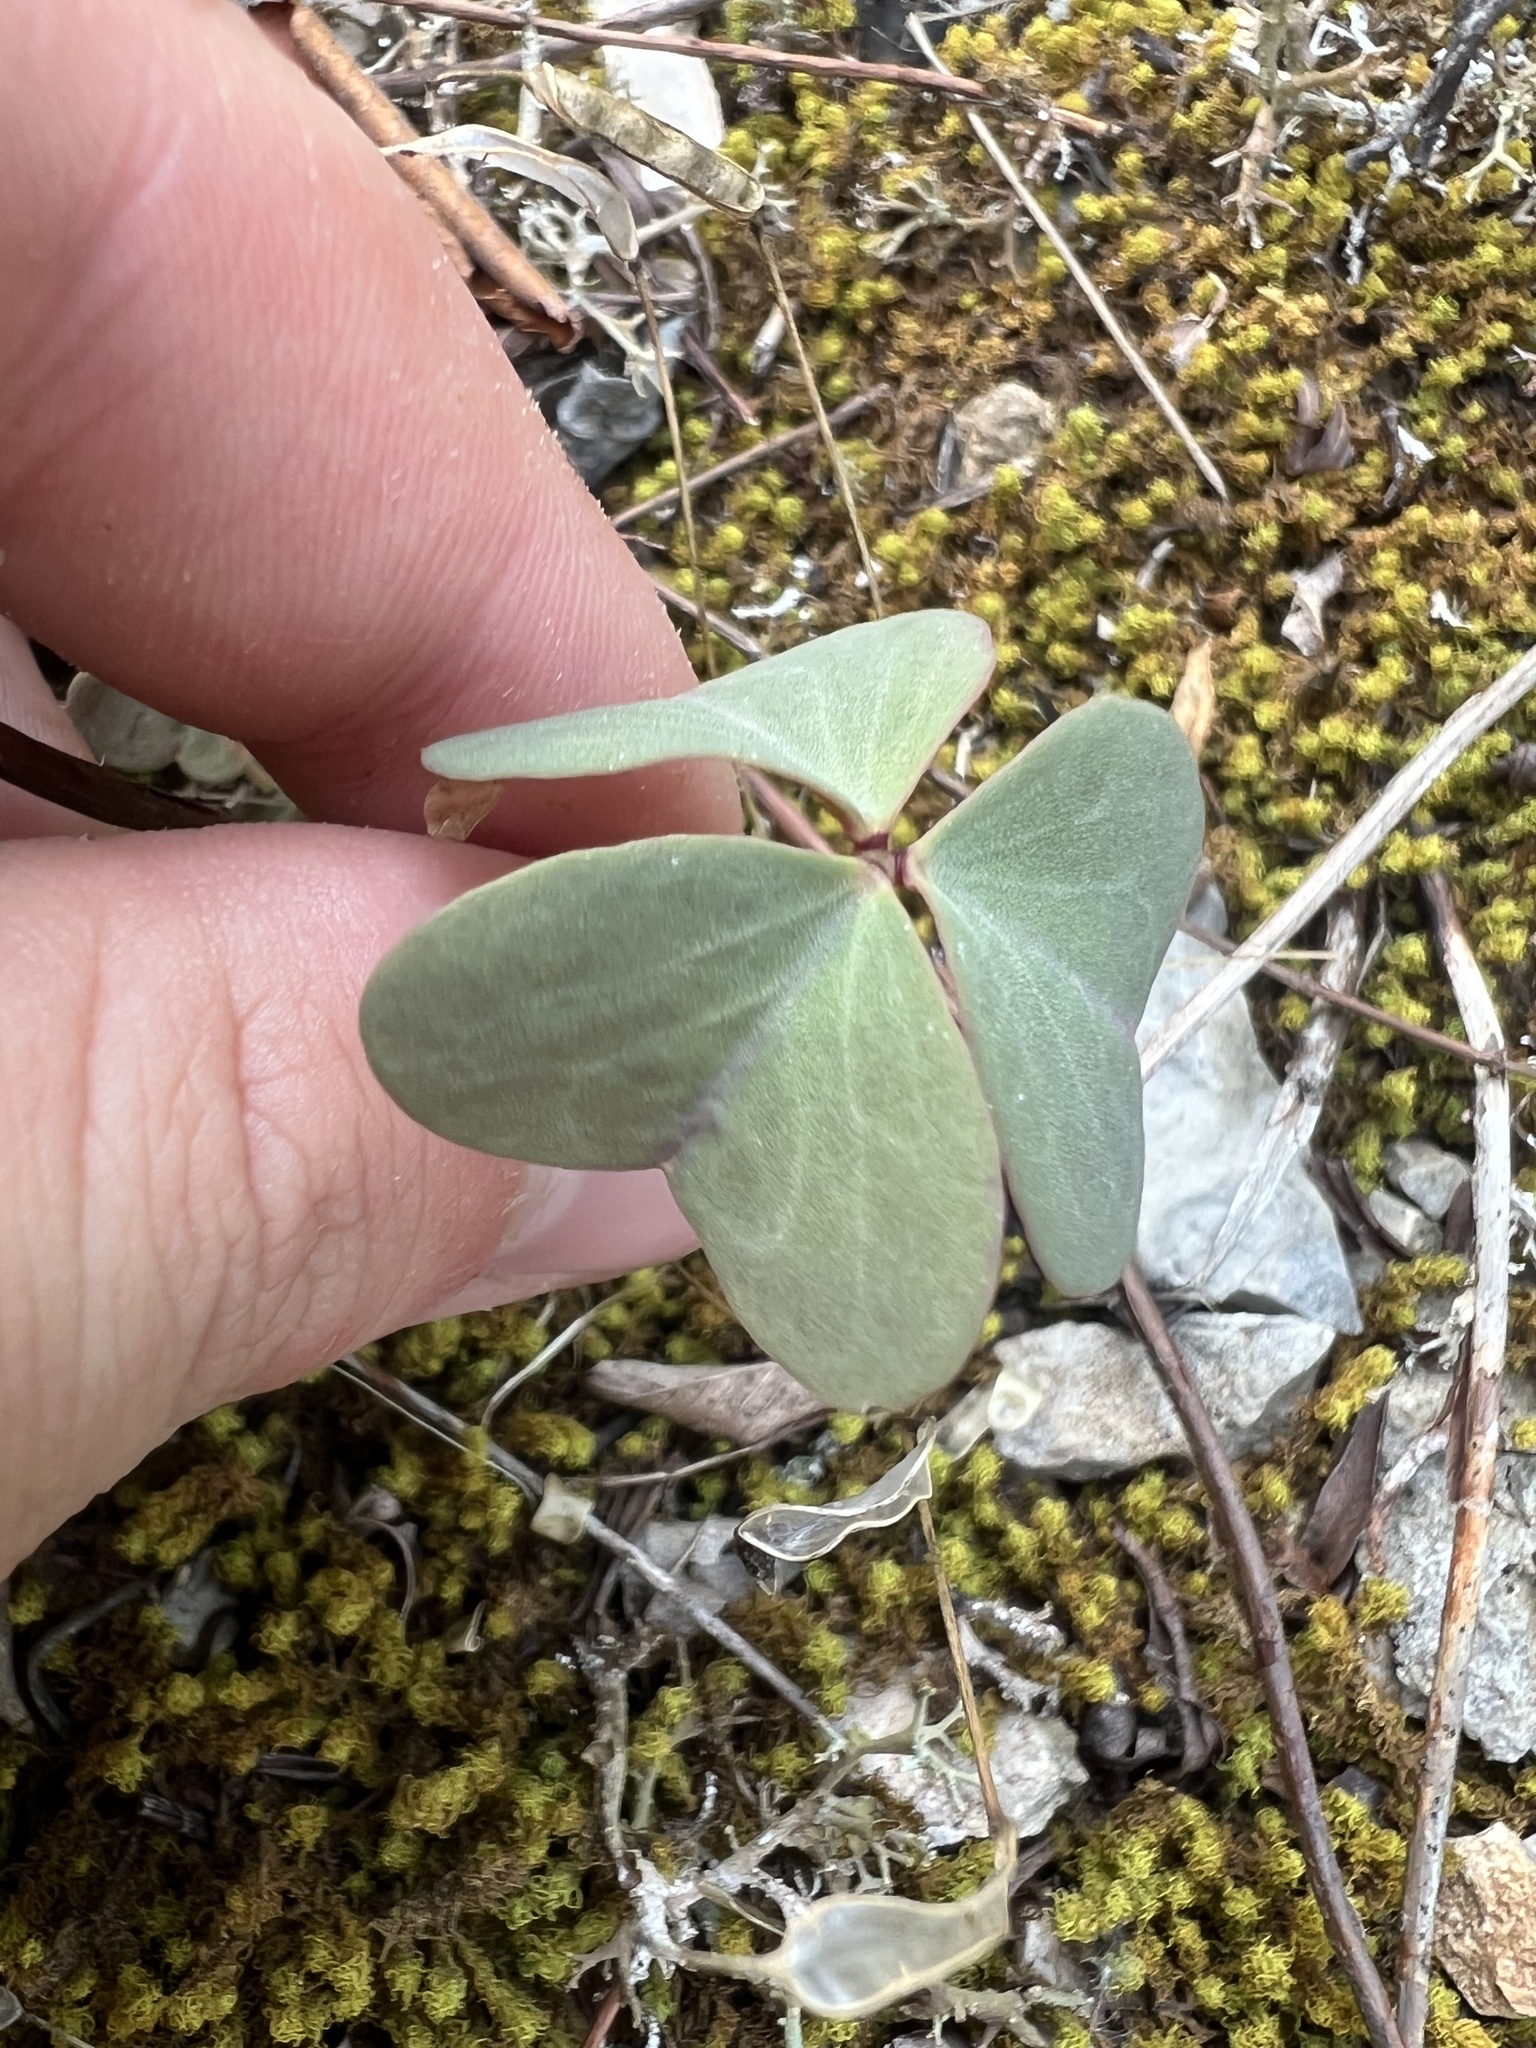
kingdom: Plantae
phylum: Tracheophyta
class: Magnoliopsida
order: Oxalidales
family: Oxalidaceae
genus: Oxalis
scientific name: Oxalis violacea
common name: Violet wood-sorrel
